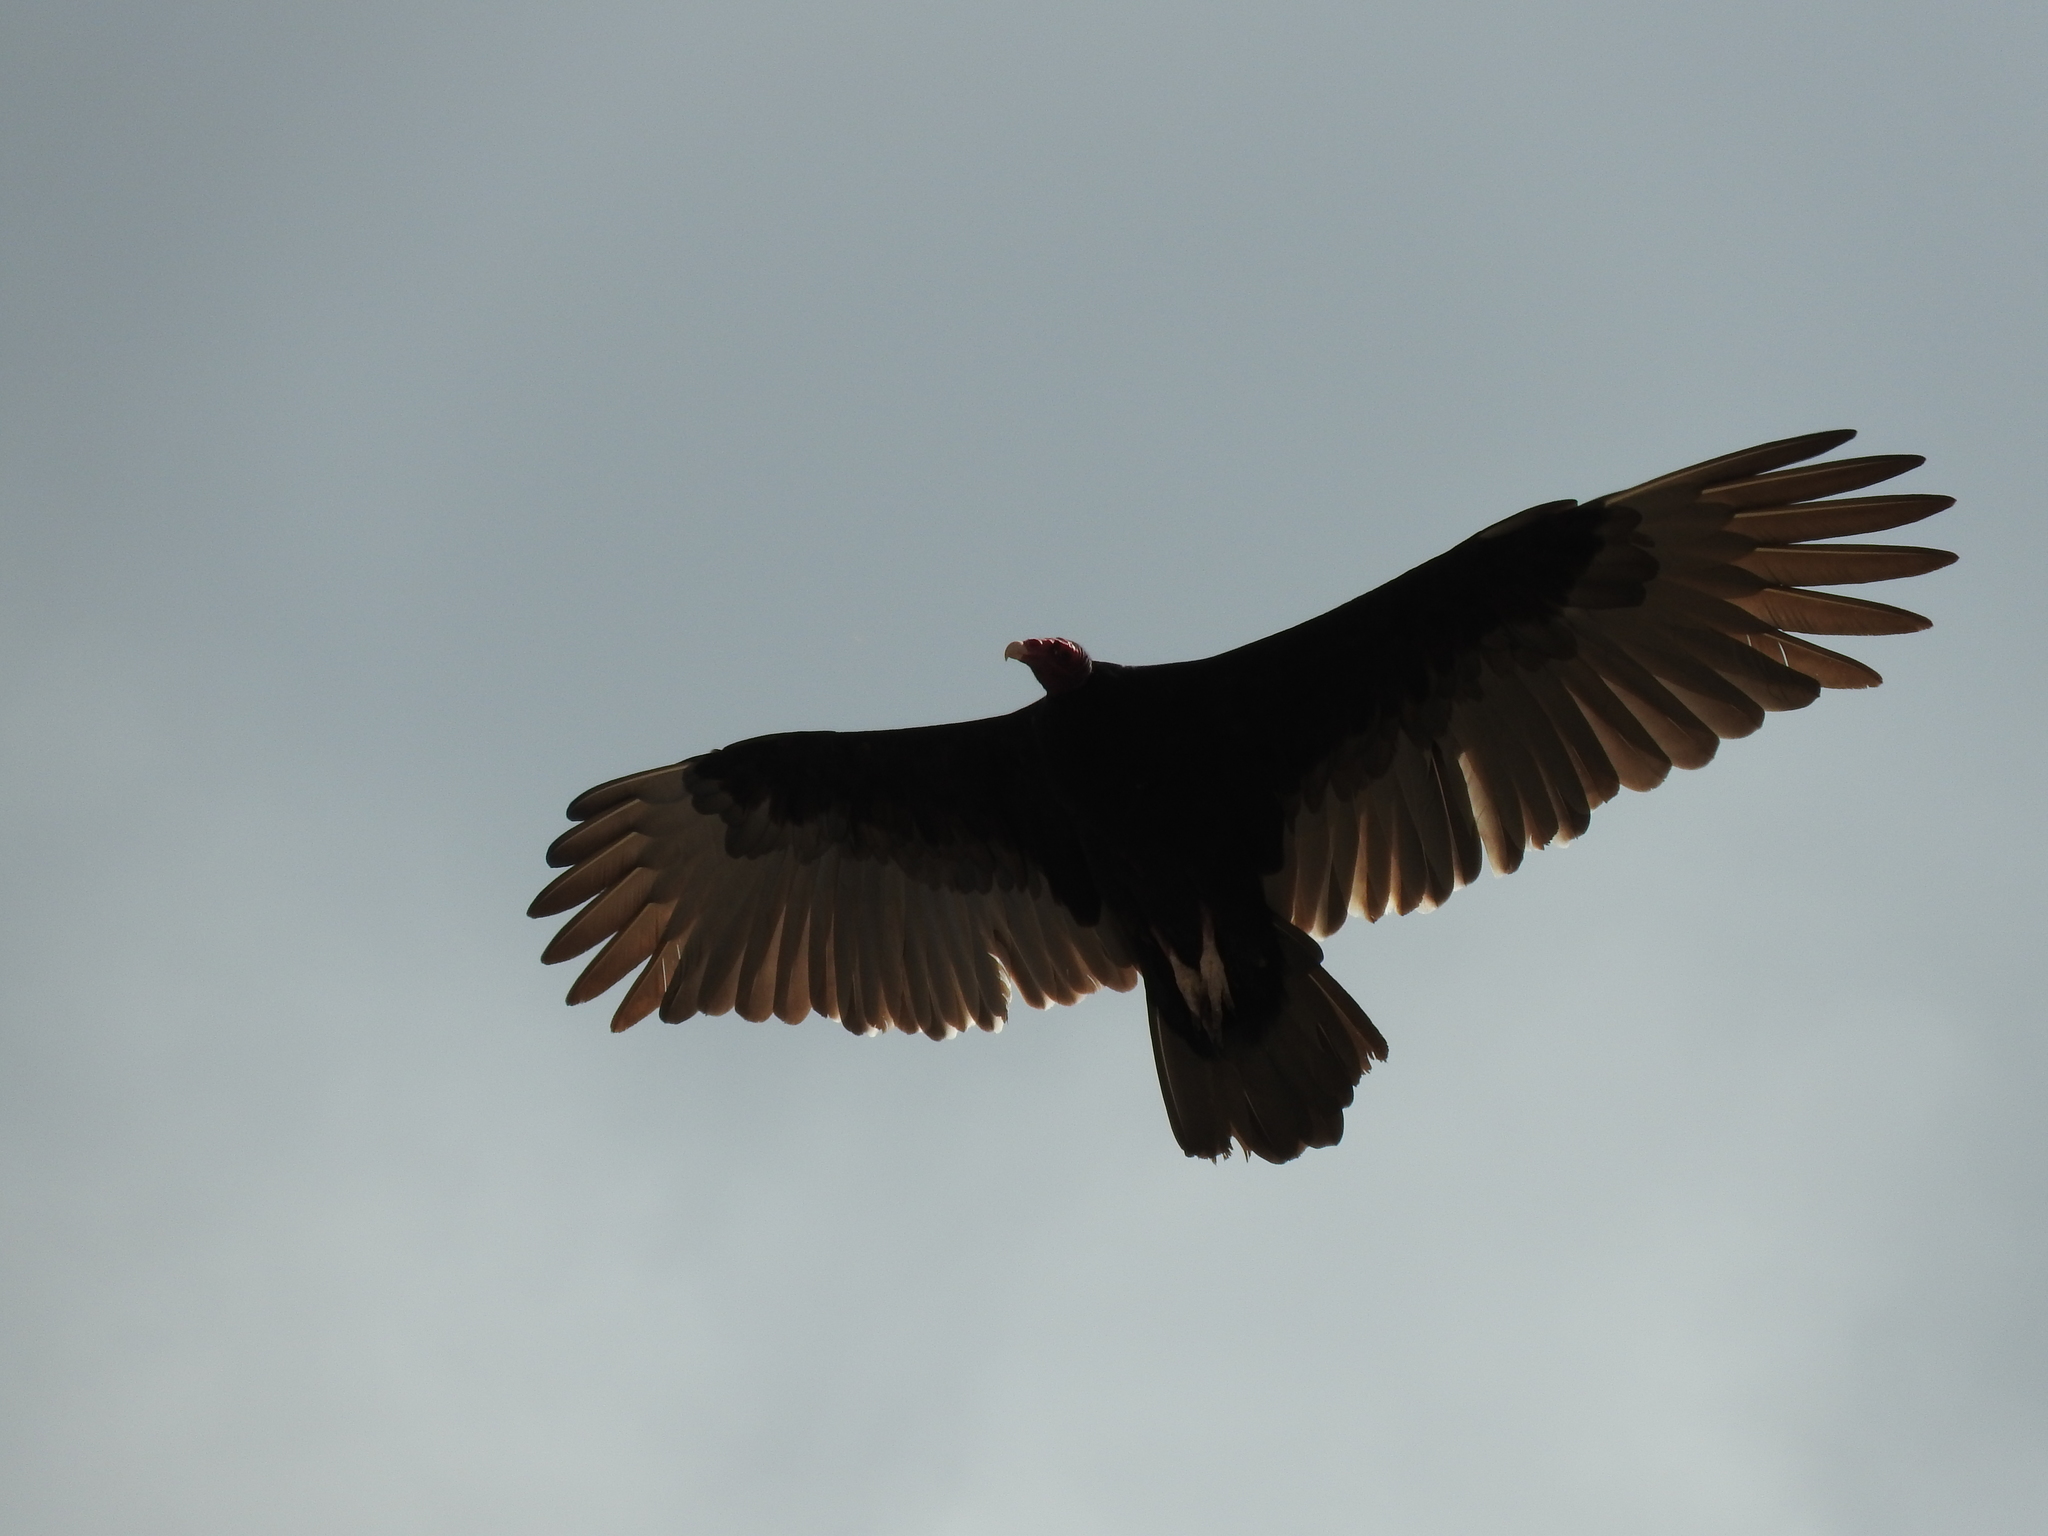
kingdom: Animalia
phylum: Chordata
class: Aves
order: Accipitriformes
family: Cathartidae
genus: Cathartes
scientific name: Cathartes aura
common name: Turkey vulture
